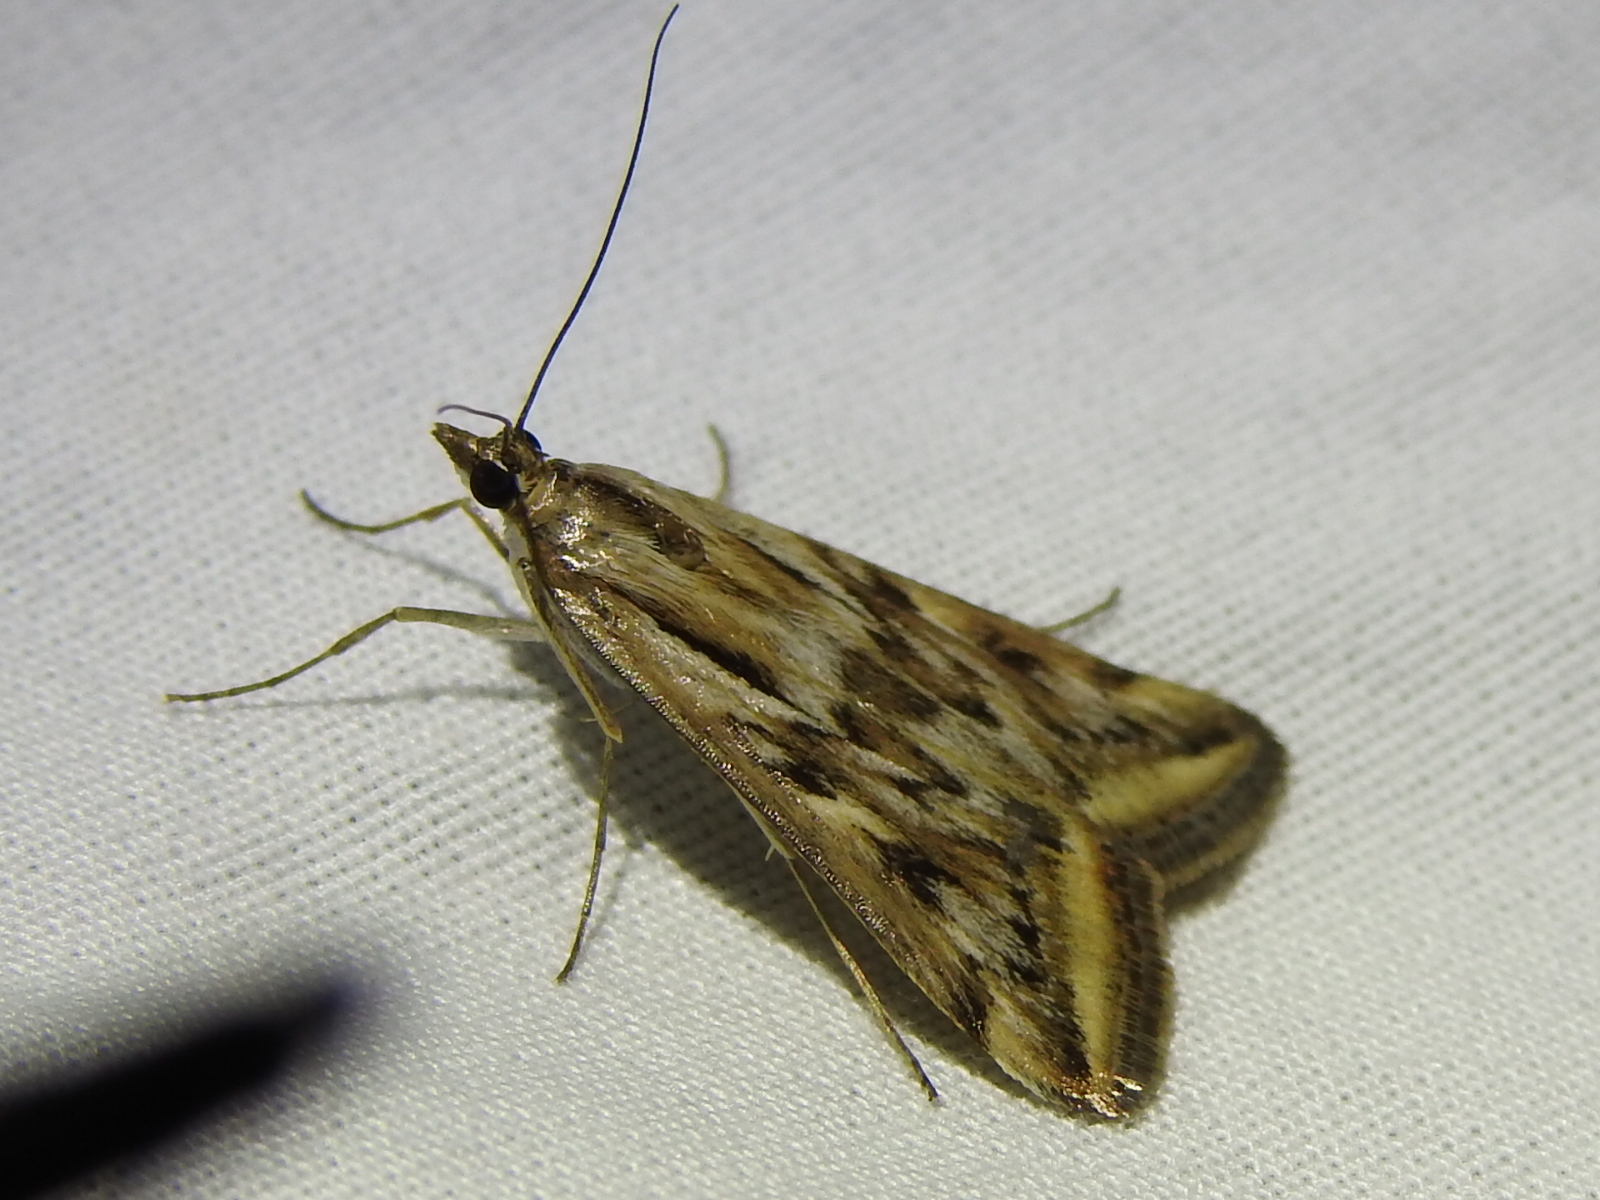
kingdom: Animalia
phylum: Arthropoda
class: Insecta
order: Lepidoptera
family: Crambidae
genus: Loxostege
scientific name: Loxostege cereralis
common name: Alfalfa webworm moth
